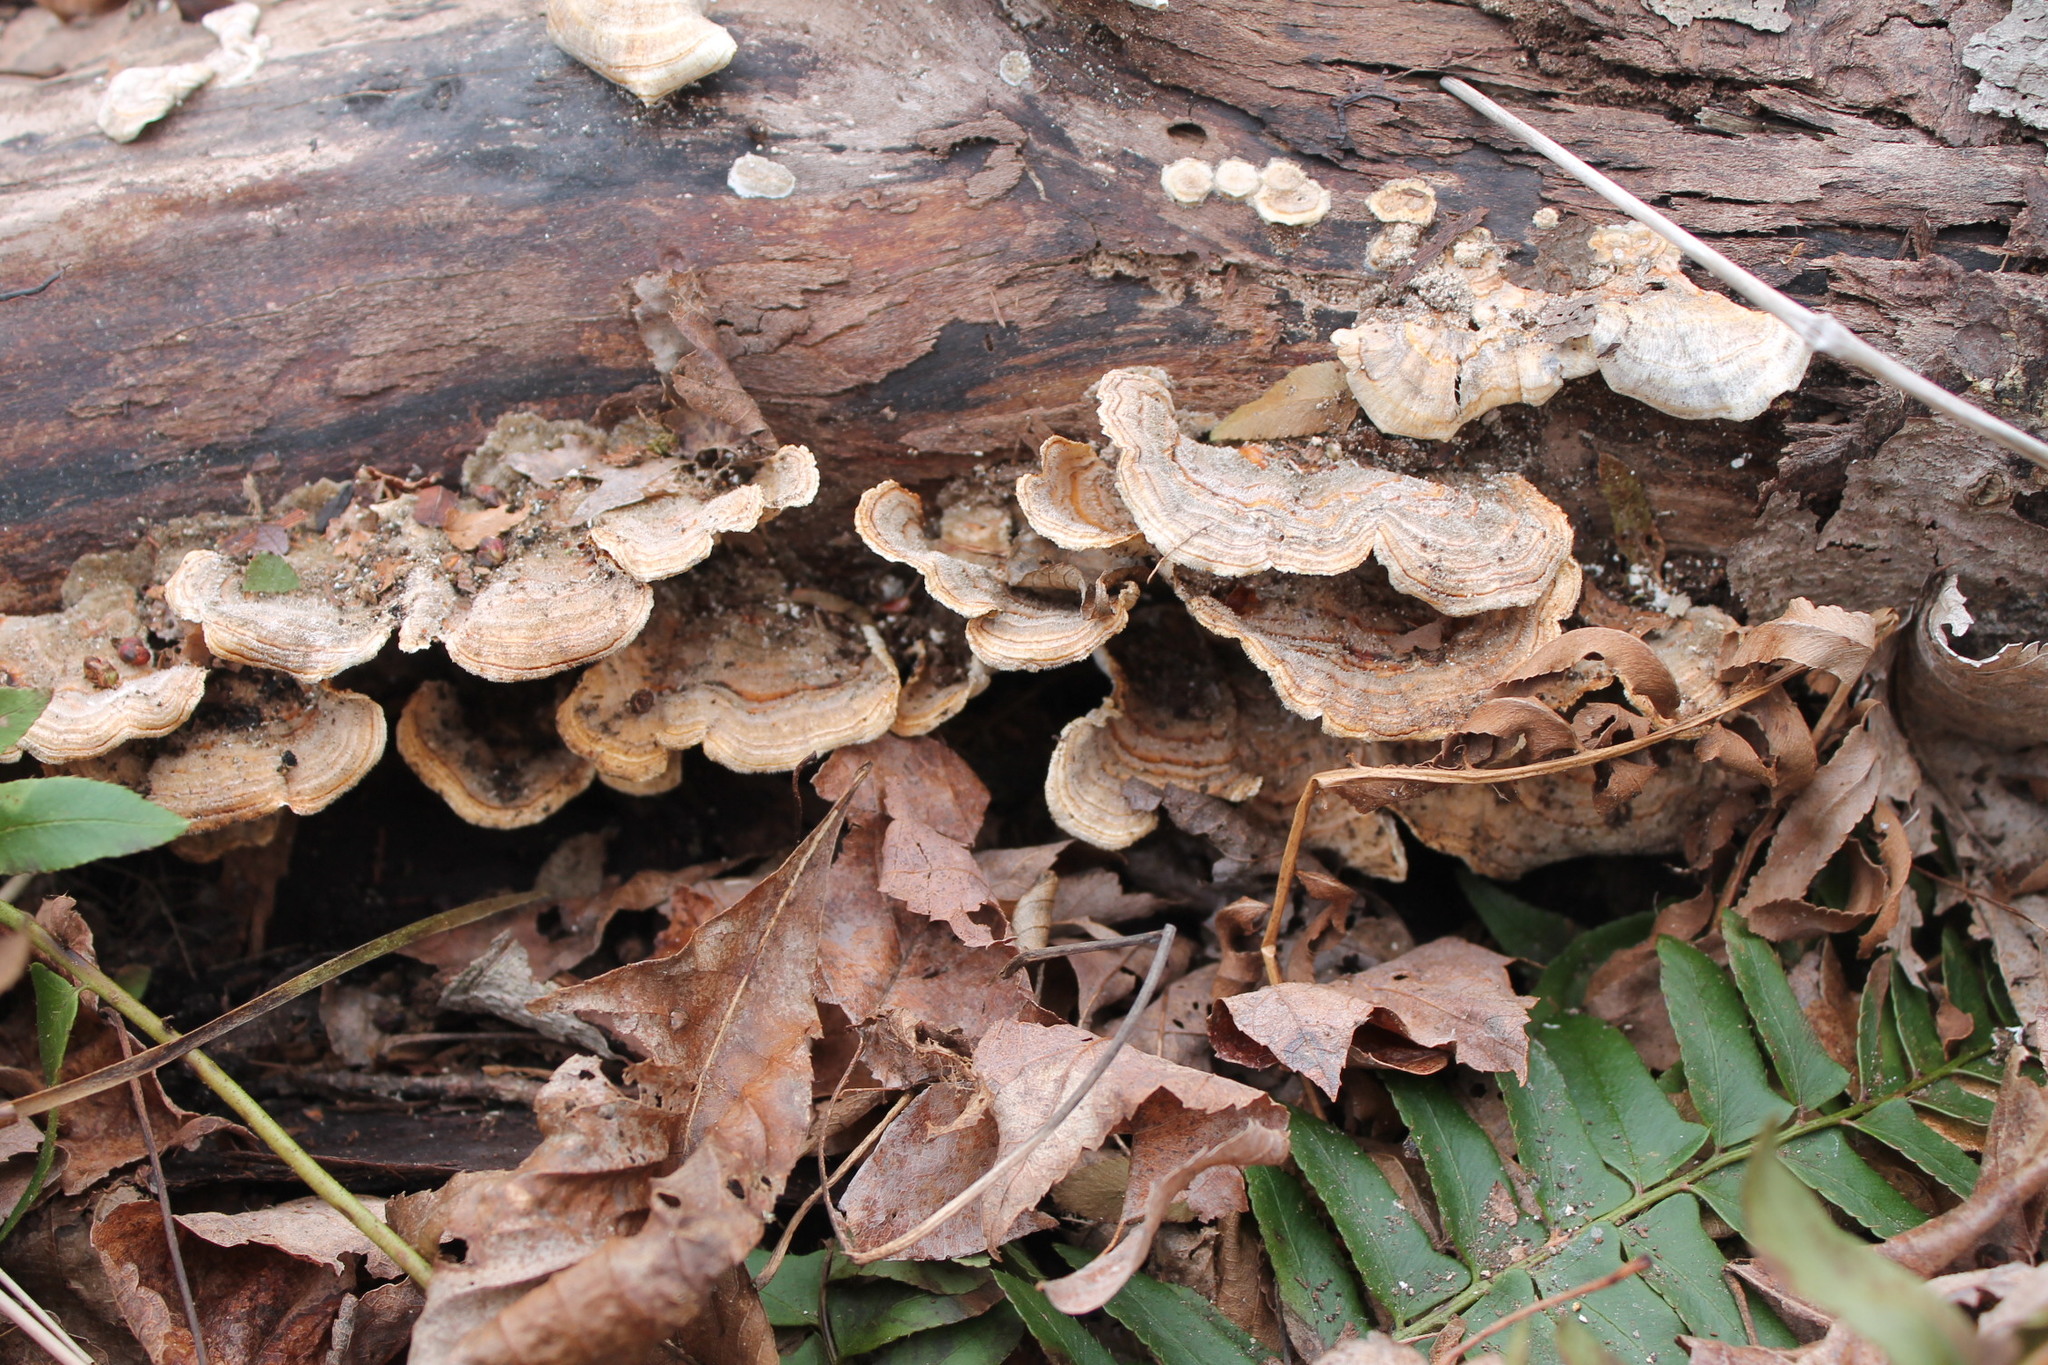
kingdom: Fungi
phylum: Basidiomycota
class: Agaricomycetes
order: Polyporales
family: Polyporaceae
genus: Trametes
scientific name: Trametes ochracea
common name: Ochre bracket
